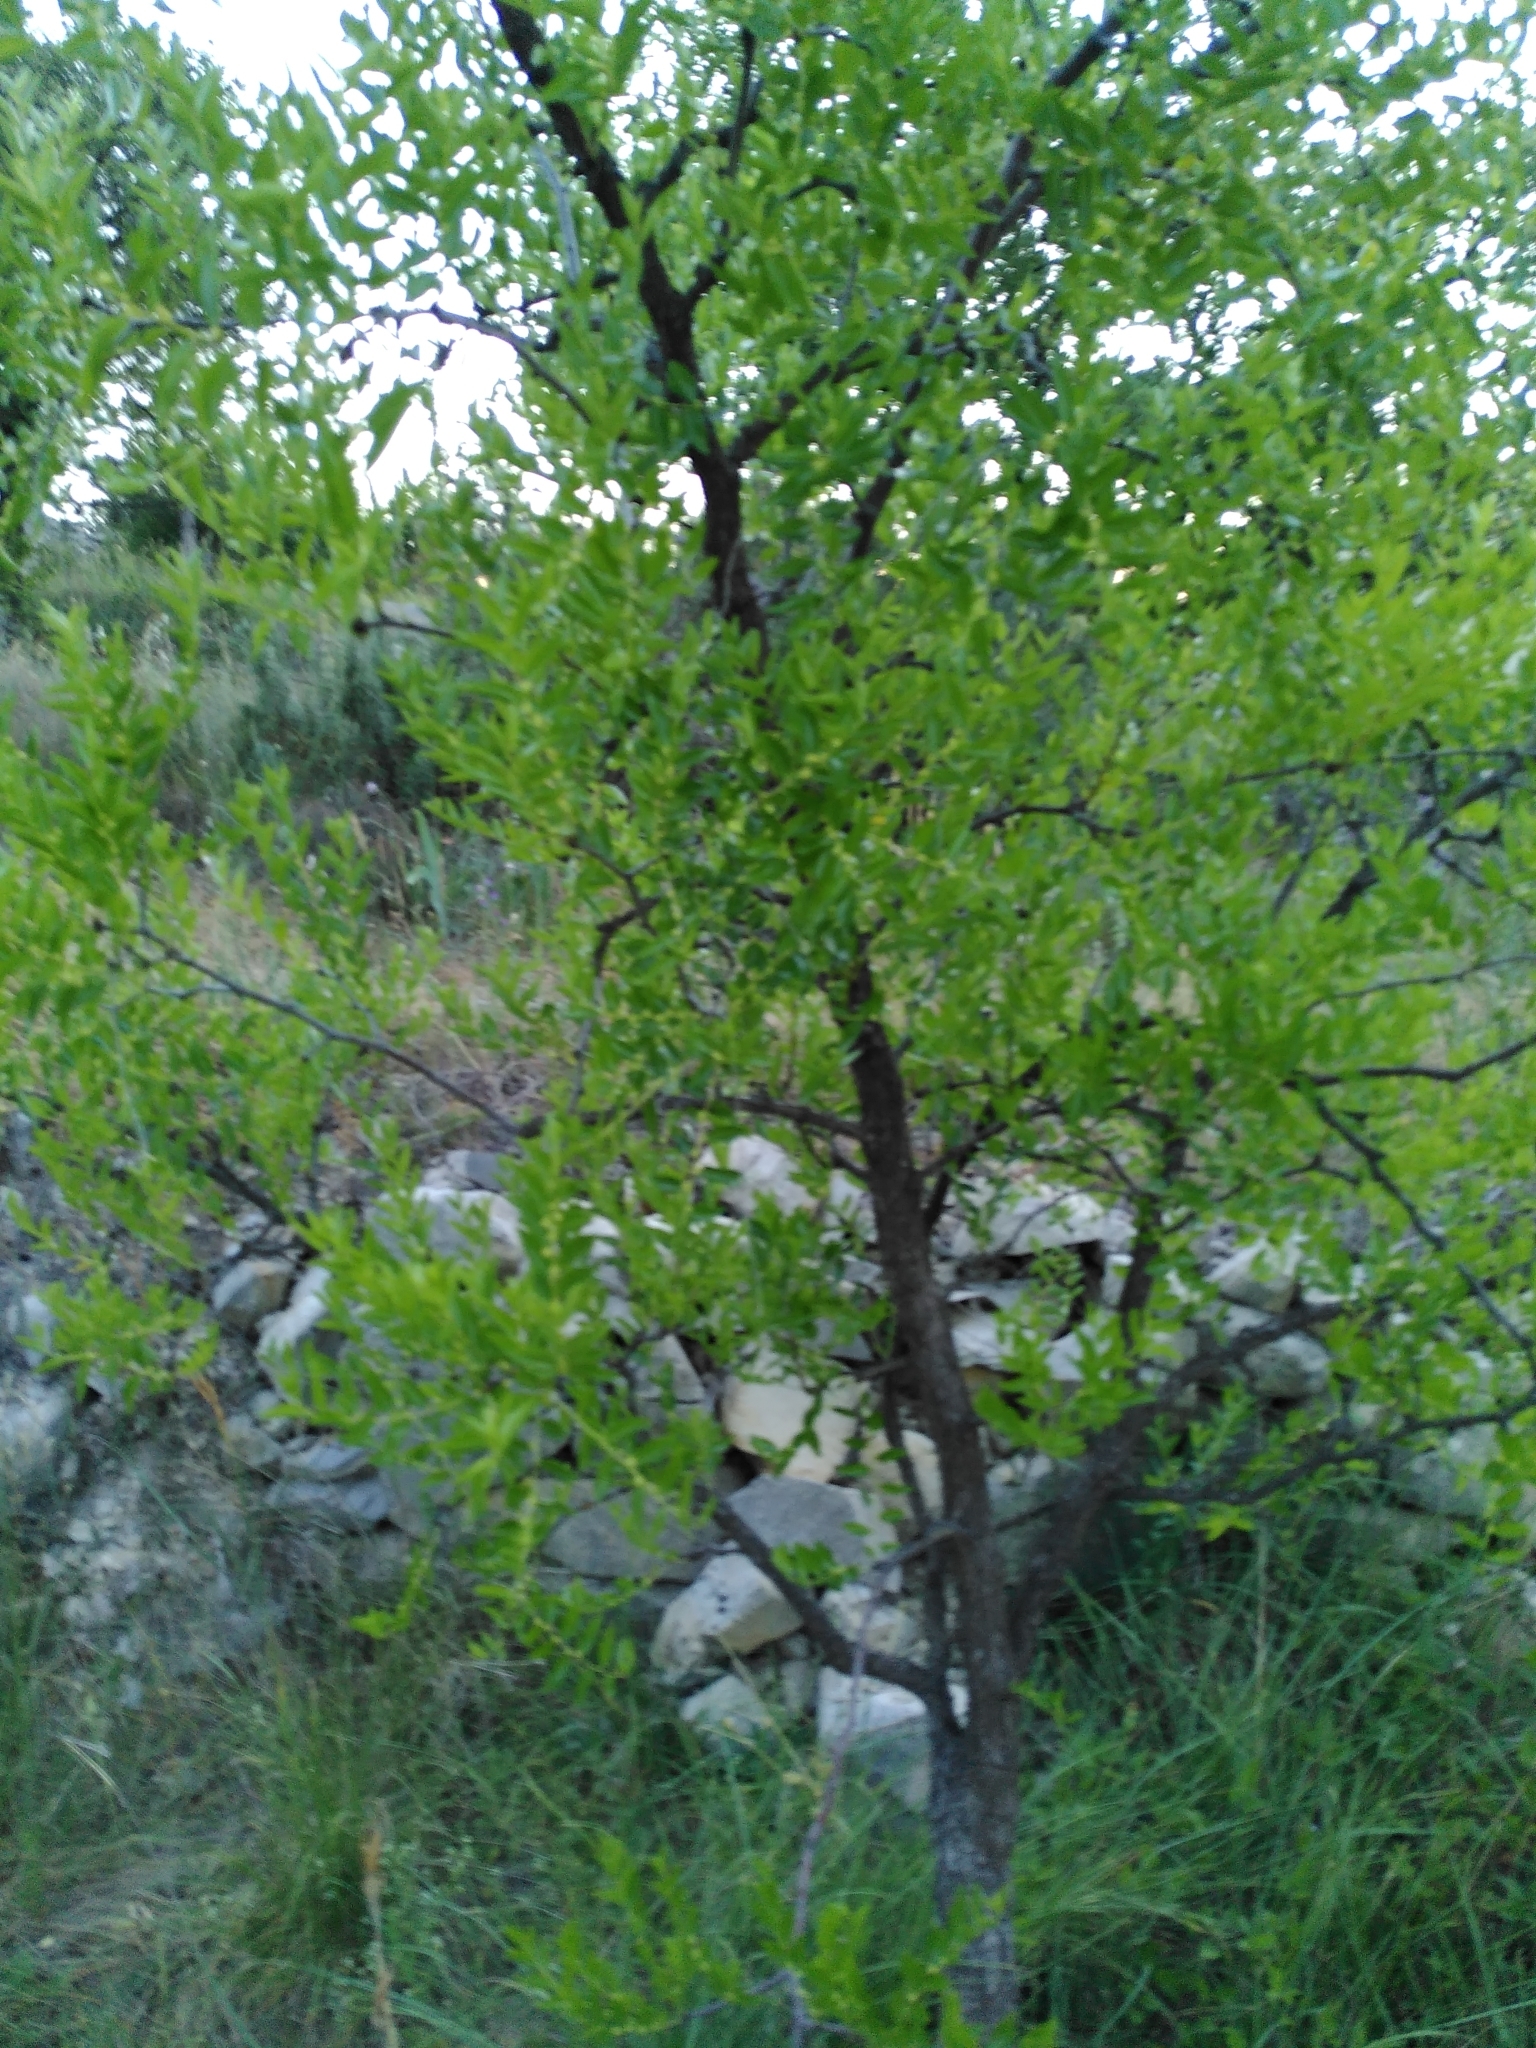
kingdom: Plantae
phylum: Tracheophyta
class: Magnoliopsida
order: Rosales
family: Rhamnaceae
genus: Ziziphus
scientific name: Ziziphus jujuba
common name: Jujube red date
